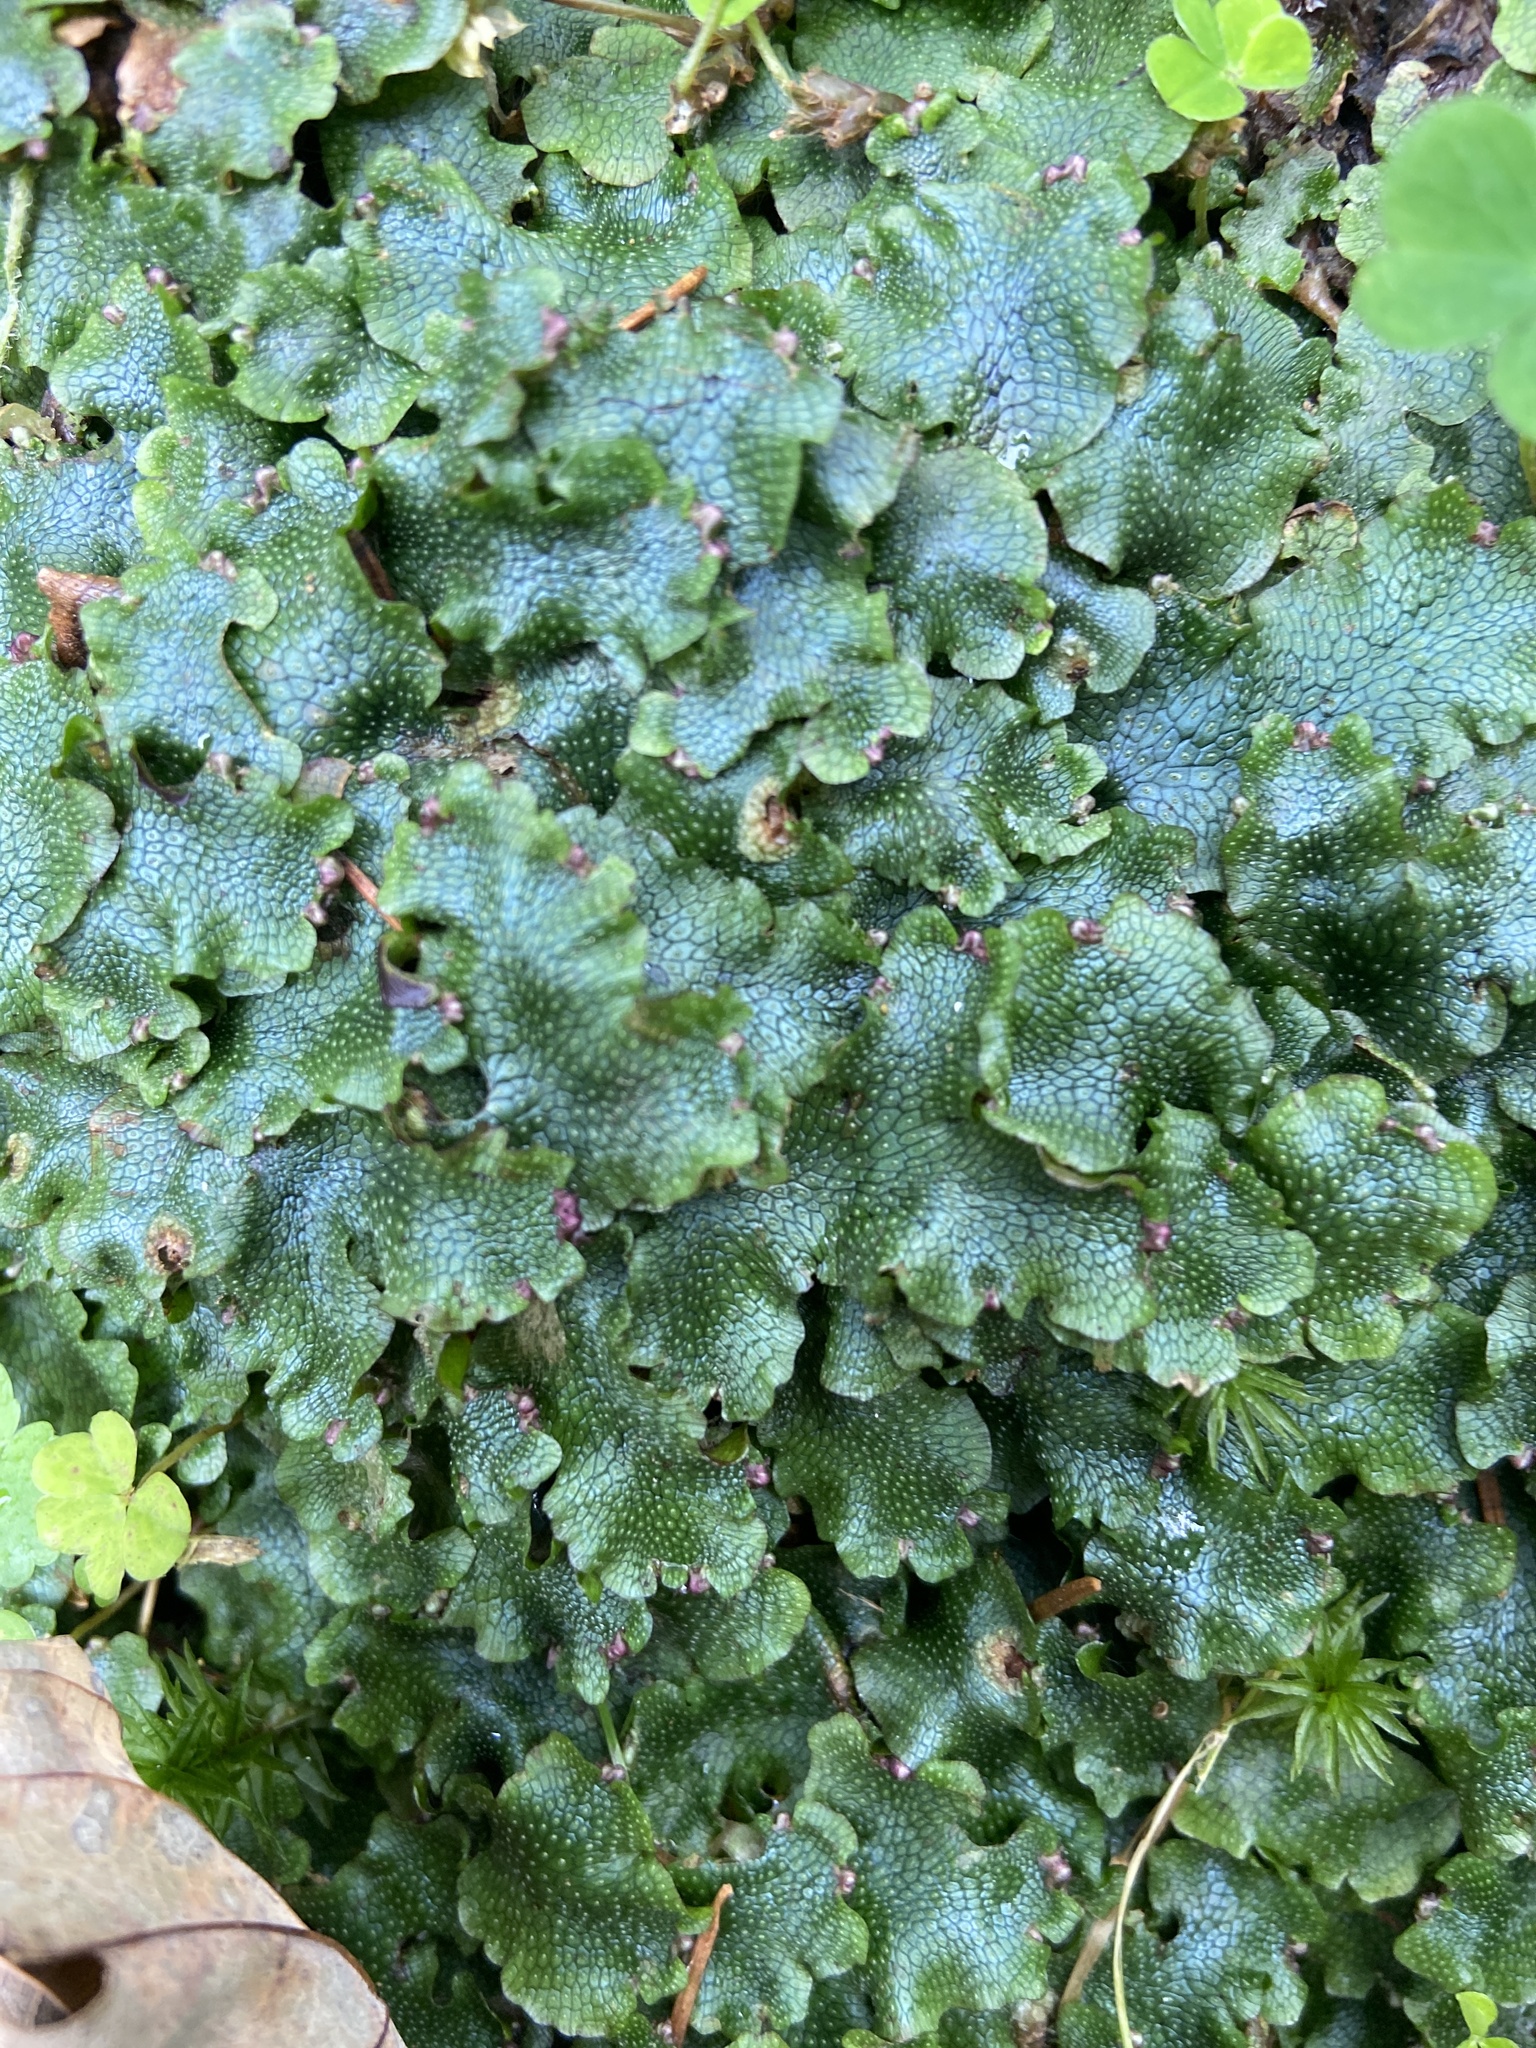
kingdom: Plantae
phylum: Marchantiophyta
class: Marchantiopsida
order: Marchantiales
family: Conocephalaceae
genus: Conocephalum
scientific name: Conocephalum salebrosum
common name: Cat-tongue liverwort
